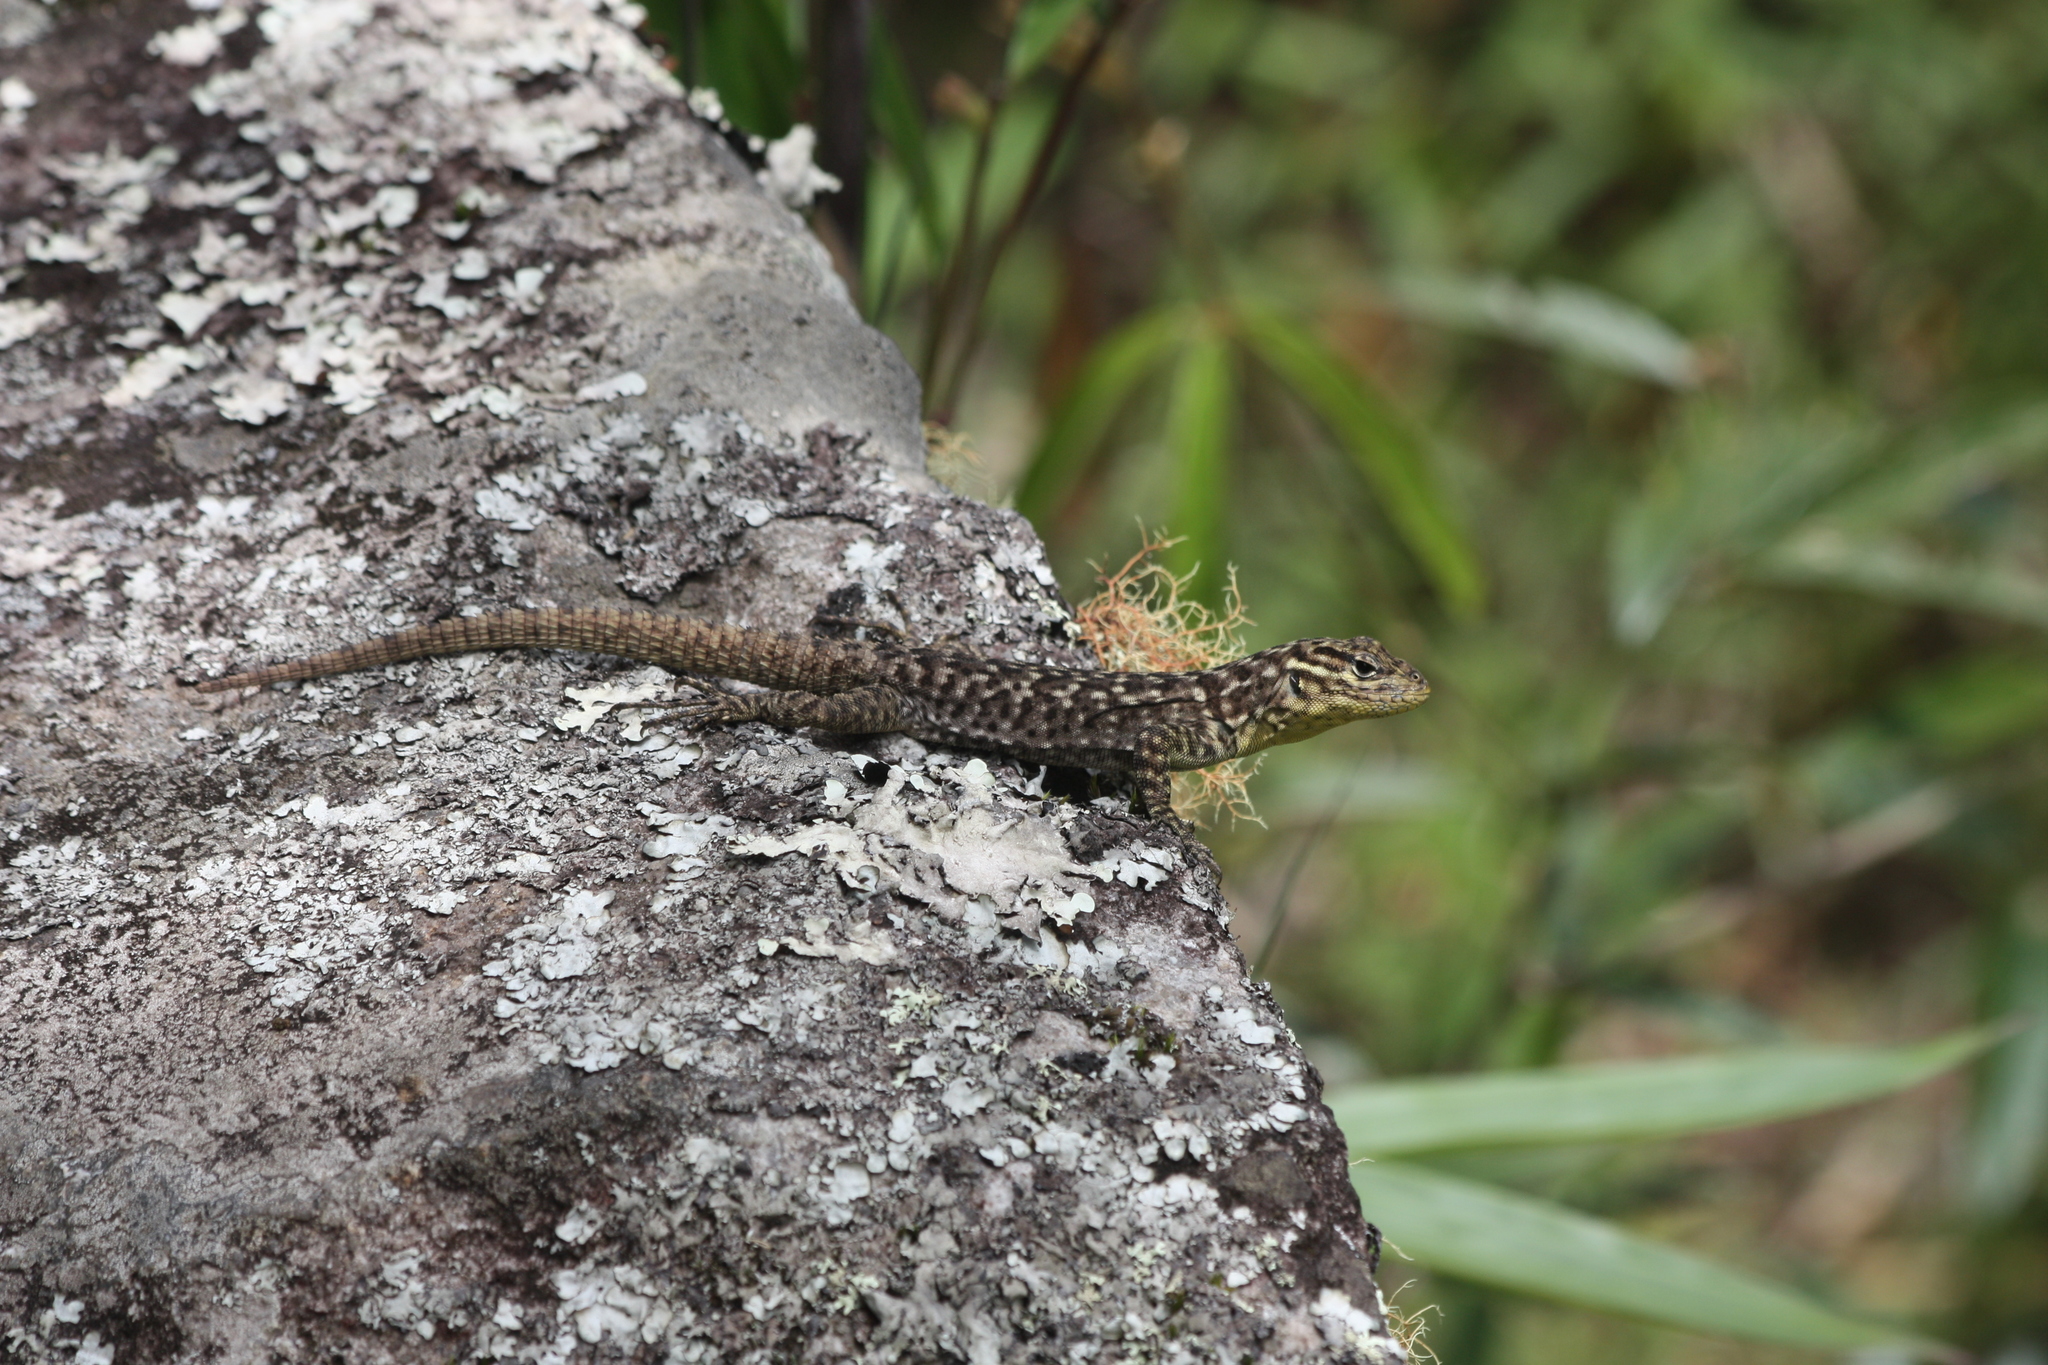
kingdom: Animalia
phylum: Chordata
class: Squamata
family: Tropiduridae
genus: Stenocercus
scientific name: Stenocercus crassicaudatus
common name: Spiny whorltail iguana
